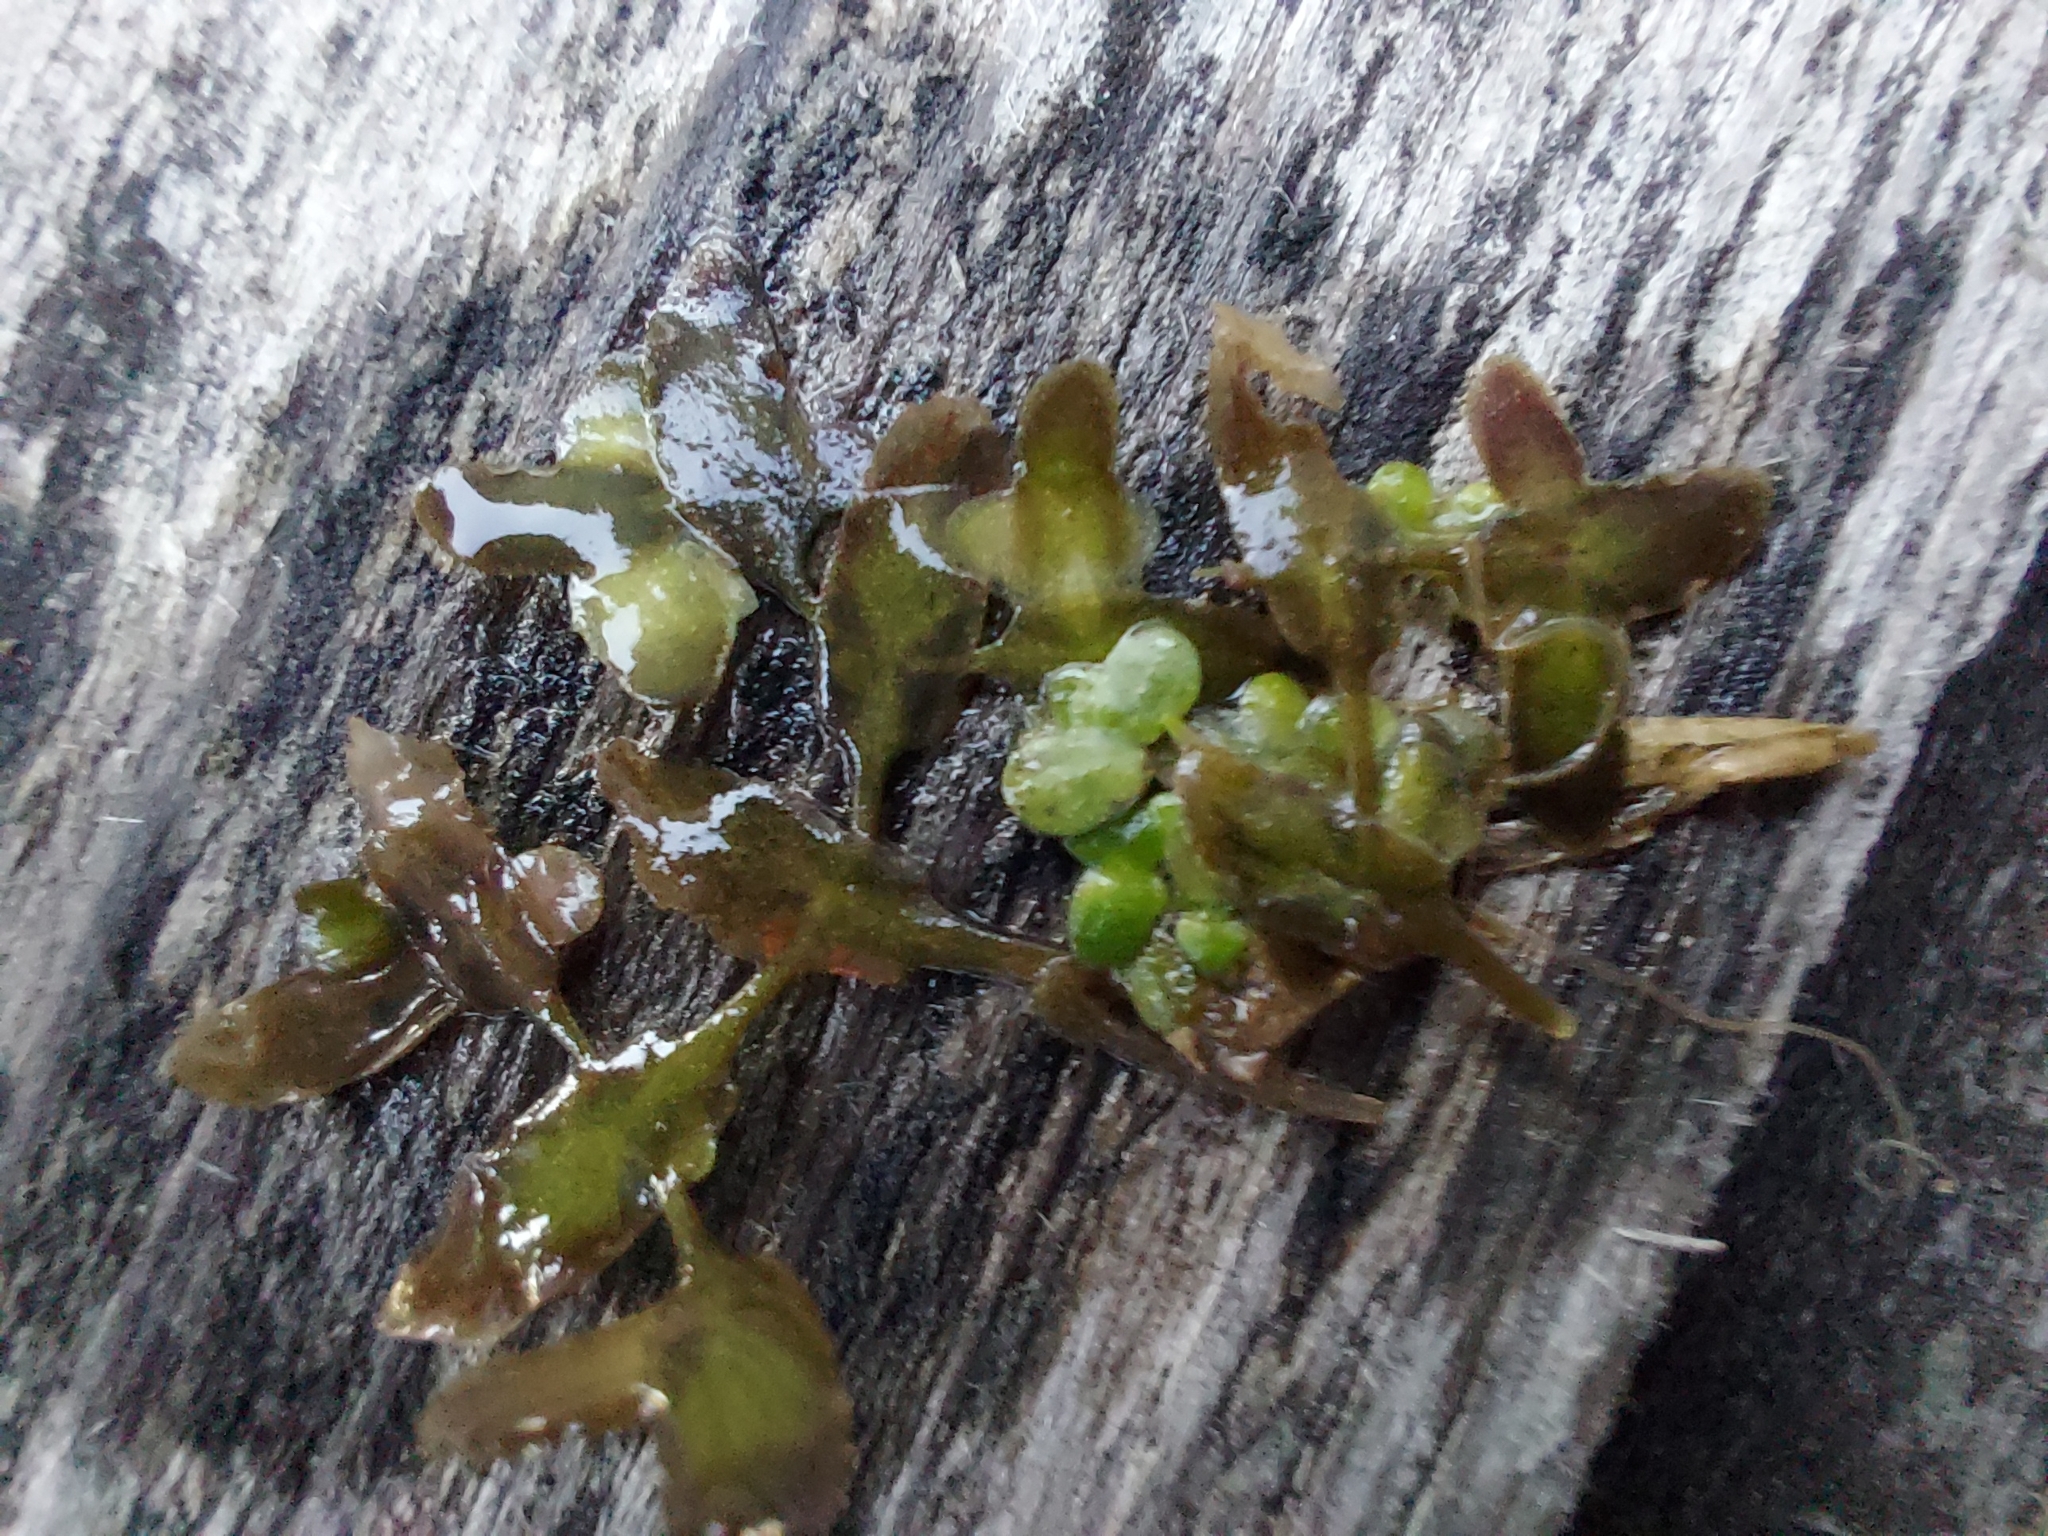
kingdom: Plantae
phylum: Tracheophyta
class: Liliopsida
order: Alismatales
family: Araceae
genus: Lemna
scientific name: Lemna trisulca
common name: Ivy-leaved duckweed
